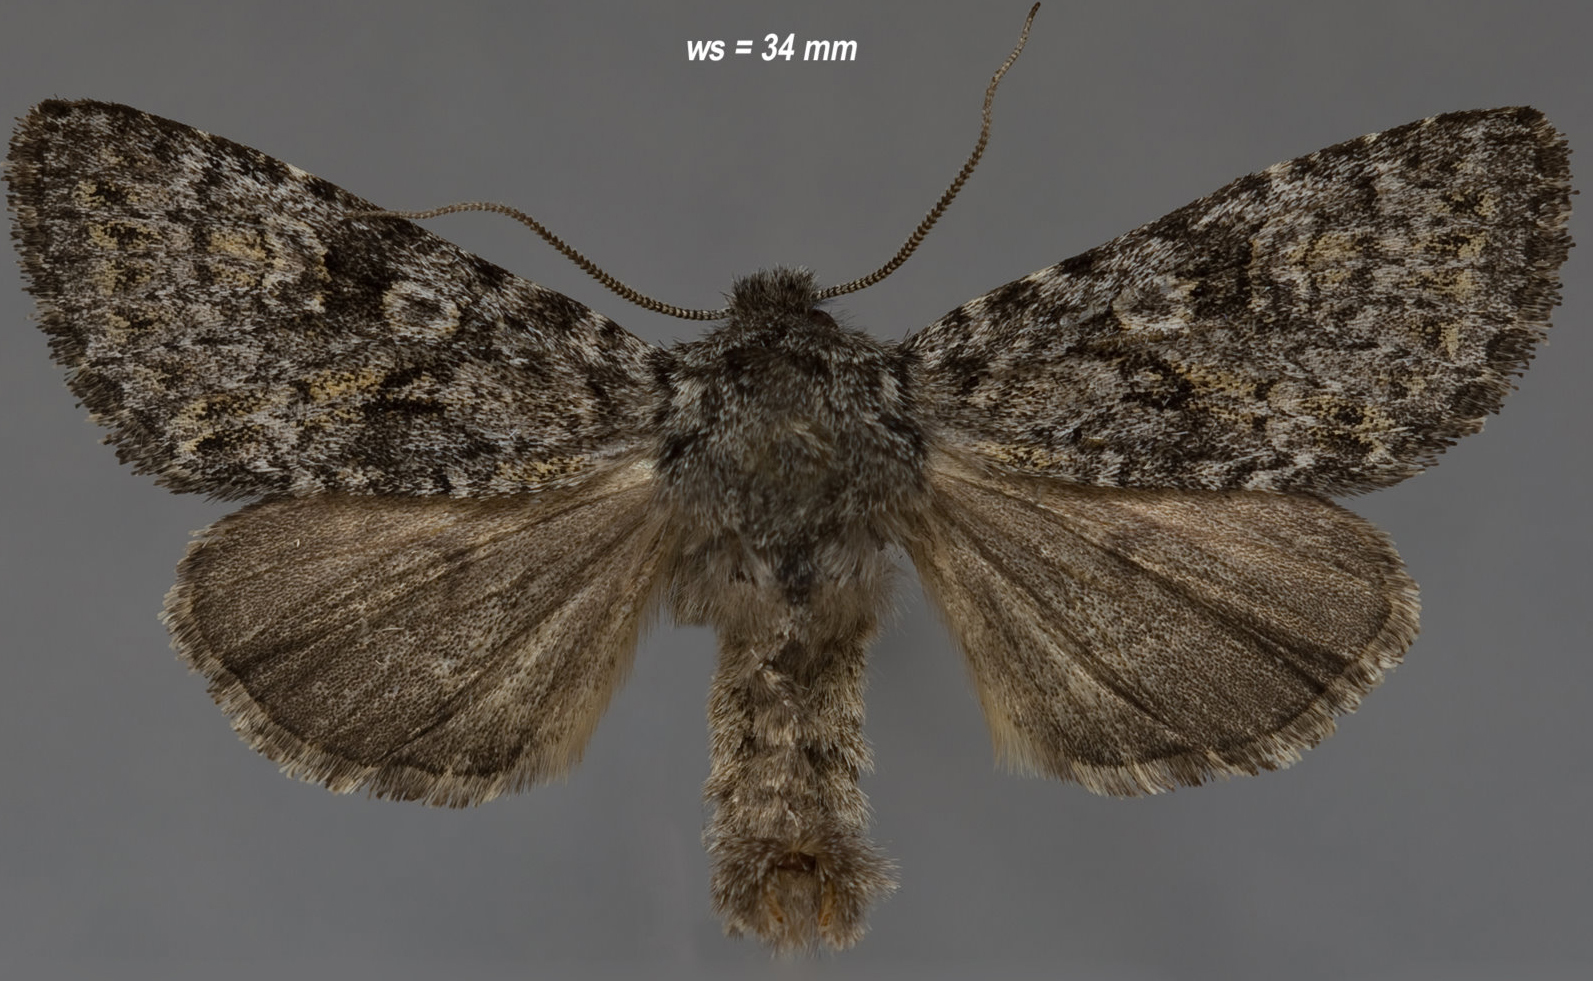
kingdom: Animalia
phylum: Arthropoda
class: Insecta
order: Lepidoptera
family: Noctuidae
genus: Lasionycta
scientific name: Lasionycta perplexa
